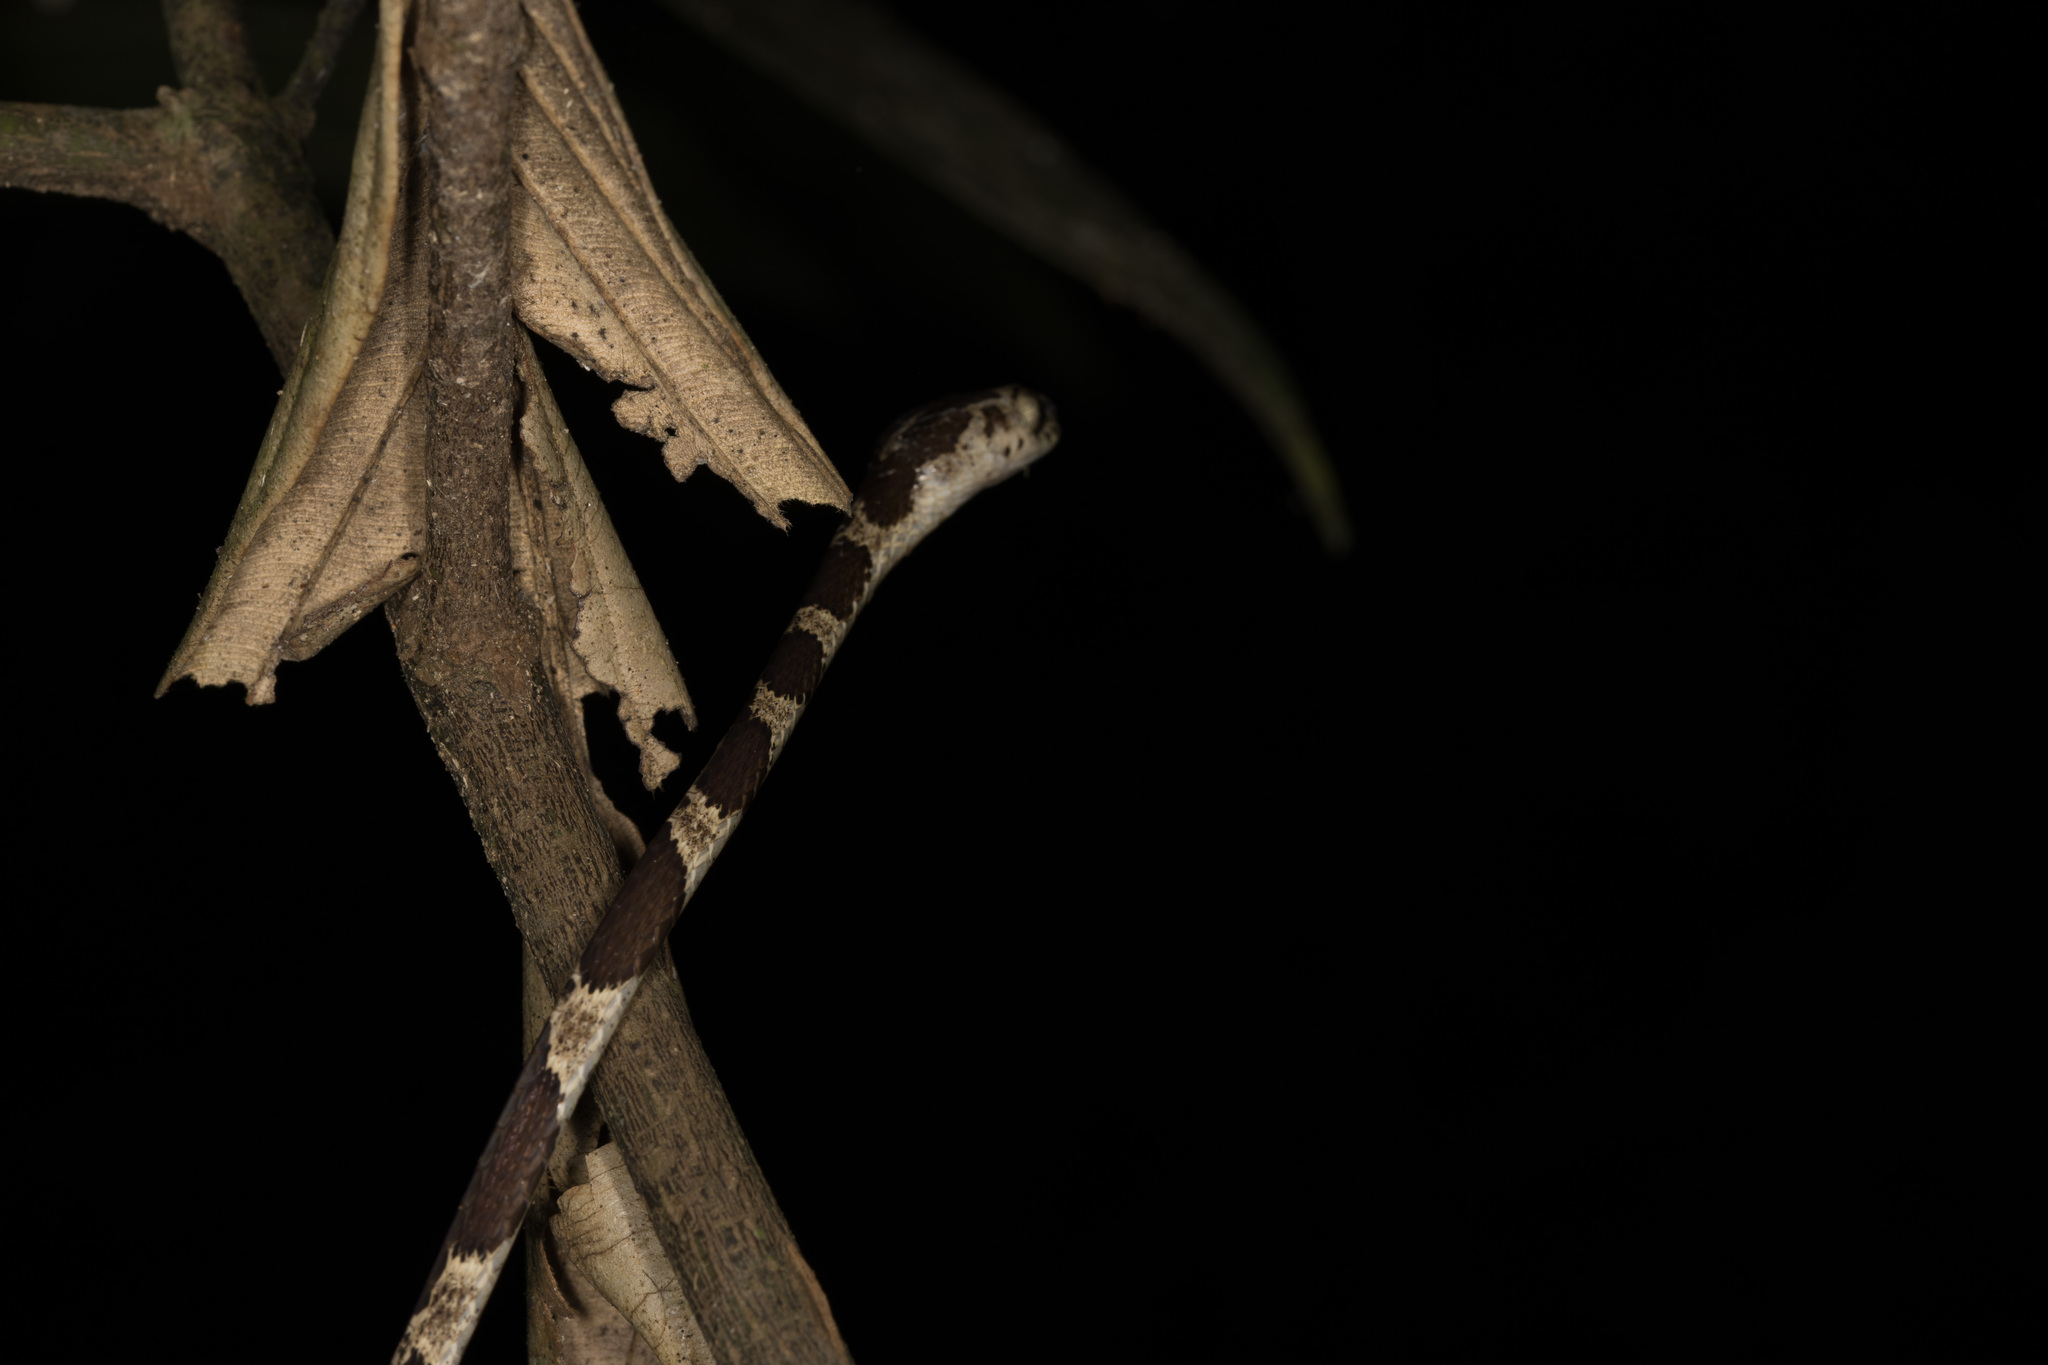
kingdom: Animalia
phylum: Chordata
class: Squamata
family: Colubridae
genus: Imantodes
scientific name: Imantodes cenchoa
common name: Blunthead tree snake
